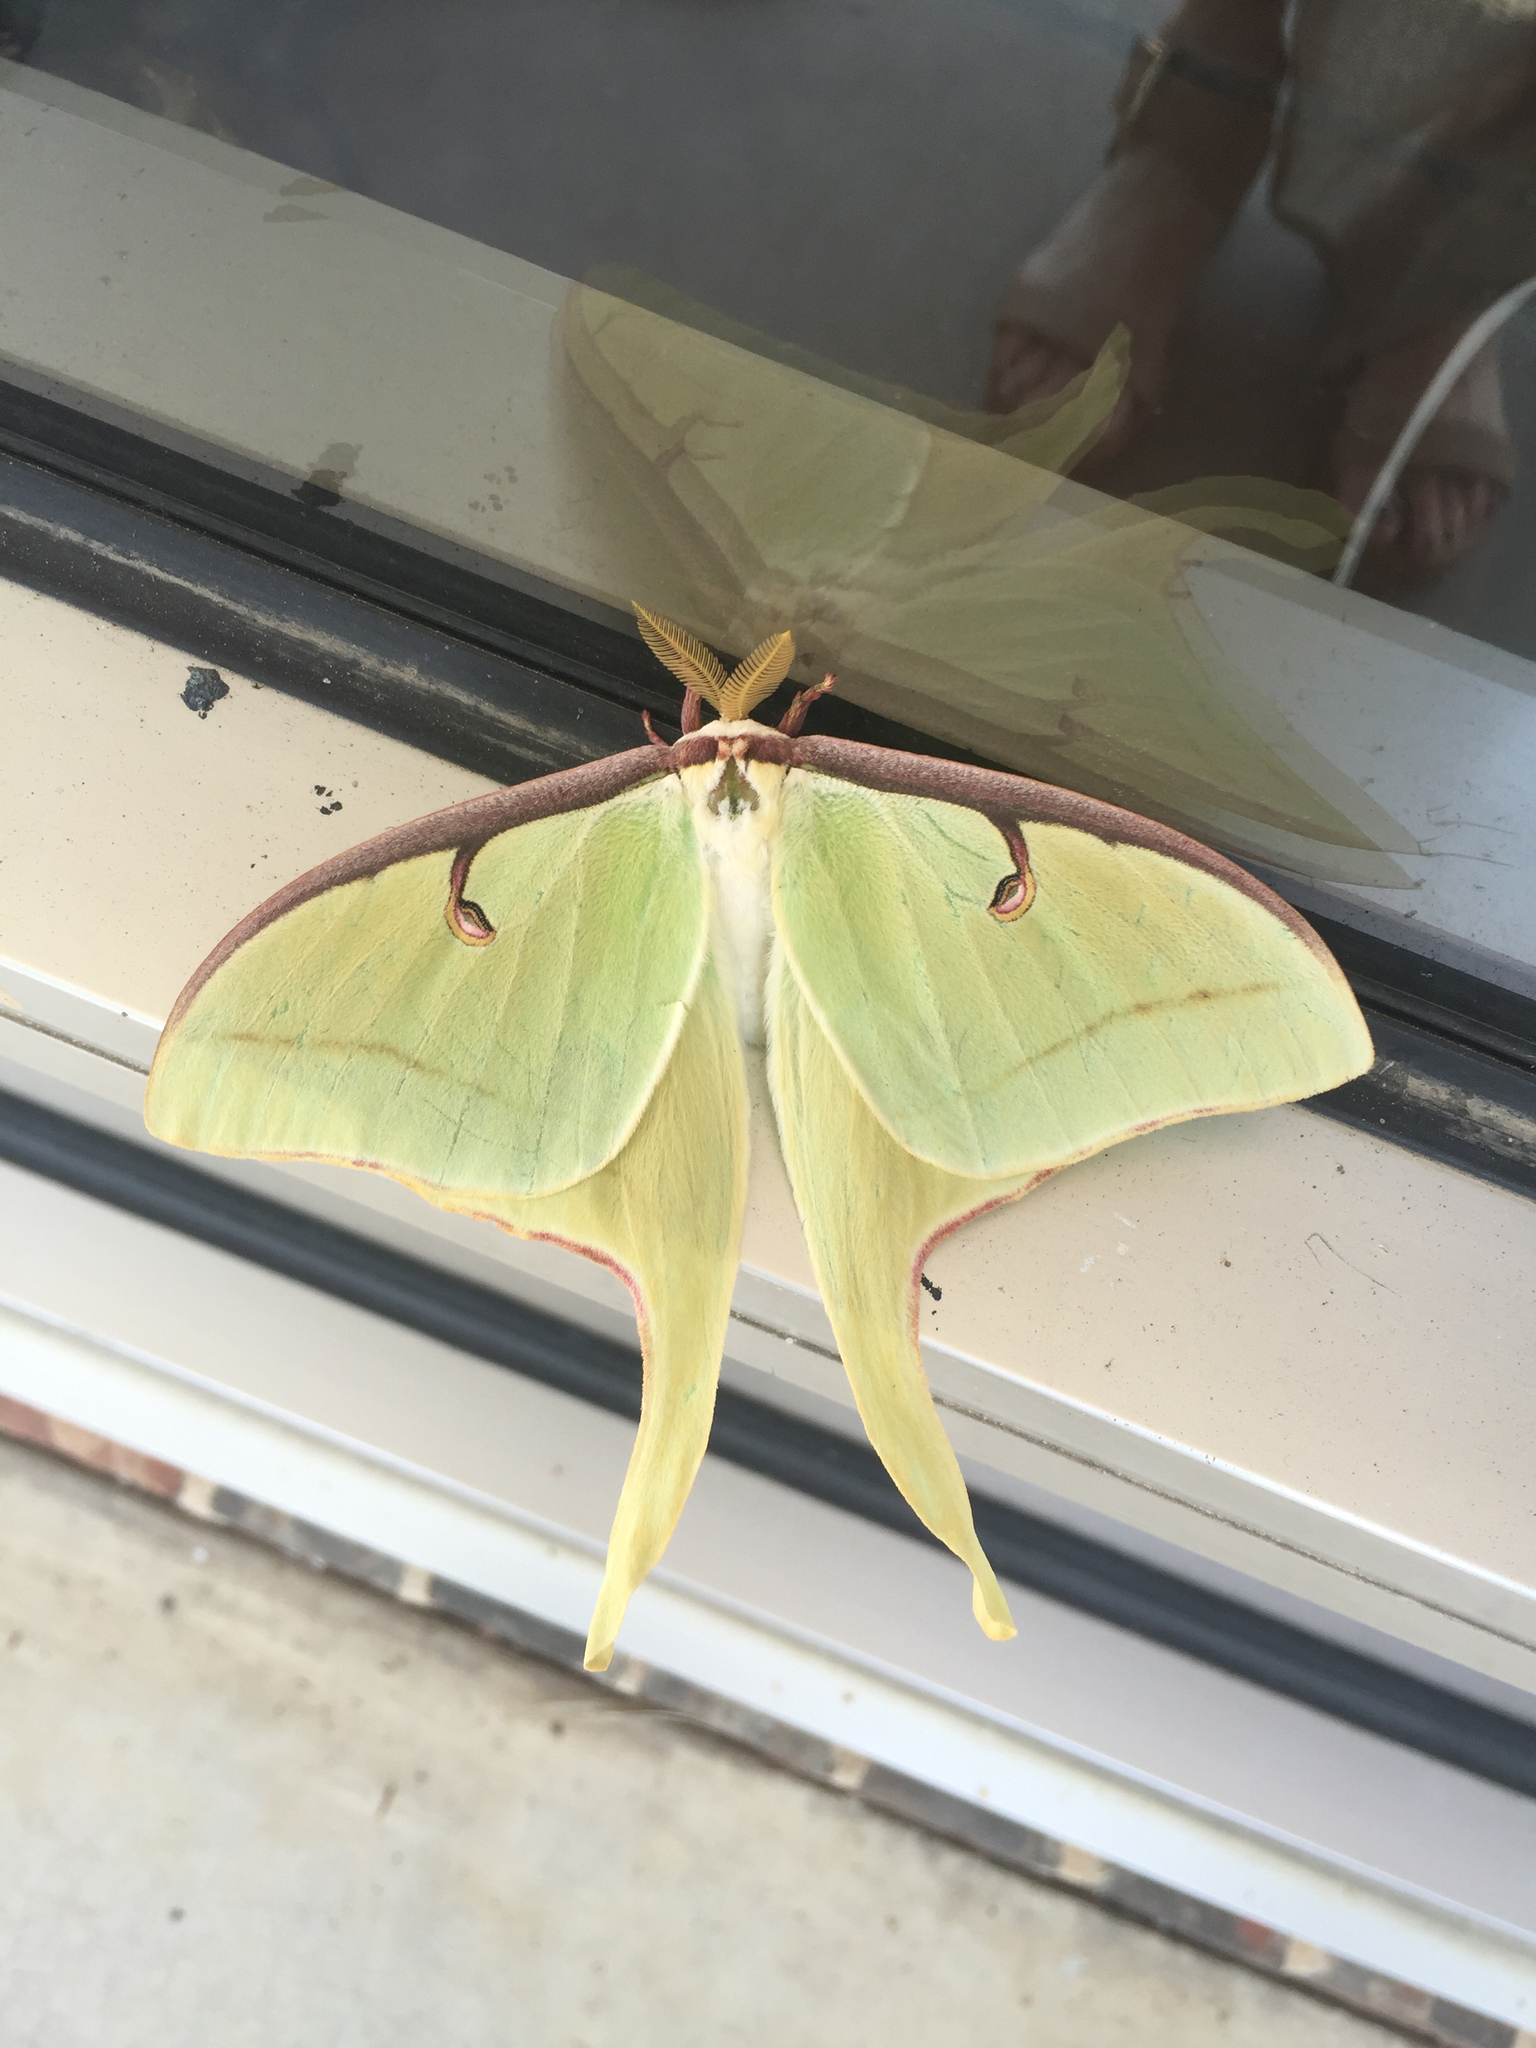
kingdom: Animalia
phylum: Arthropoda
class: Insecta
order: Lepidoptera
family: Saturniidae
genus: Actias
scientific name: Actias luna
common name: Luna moth
